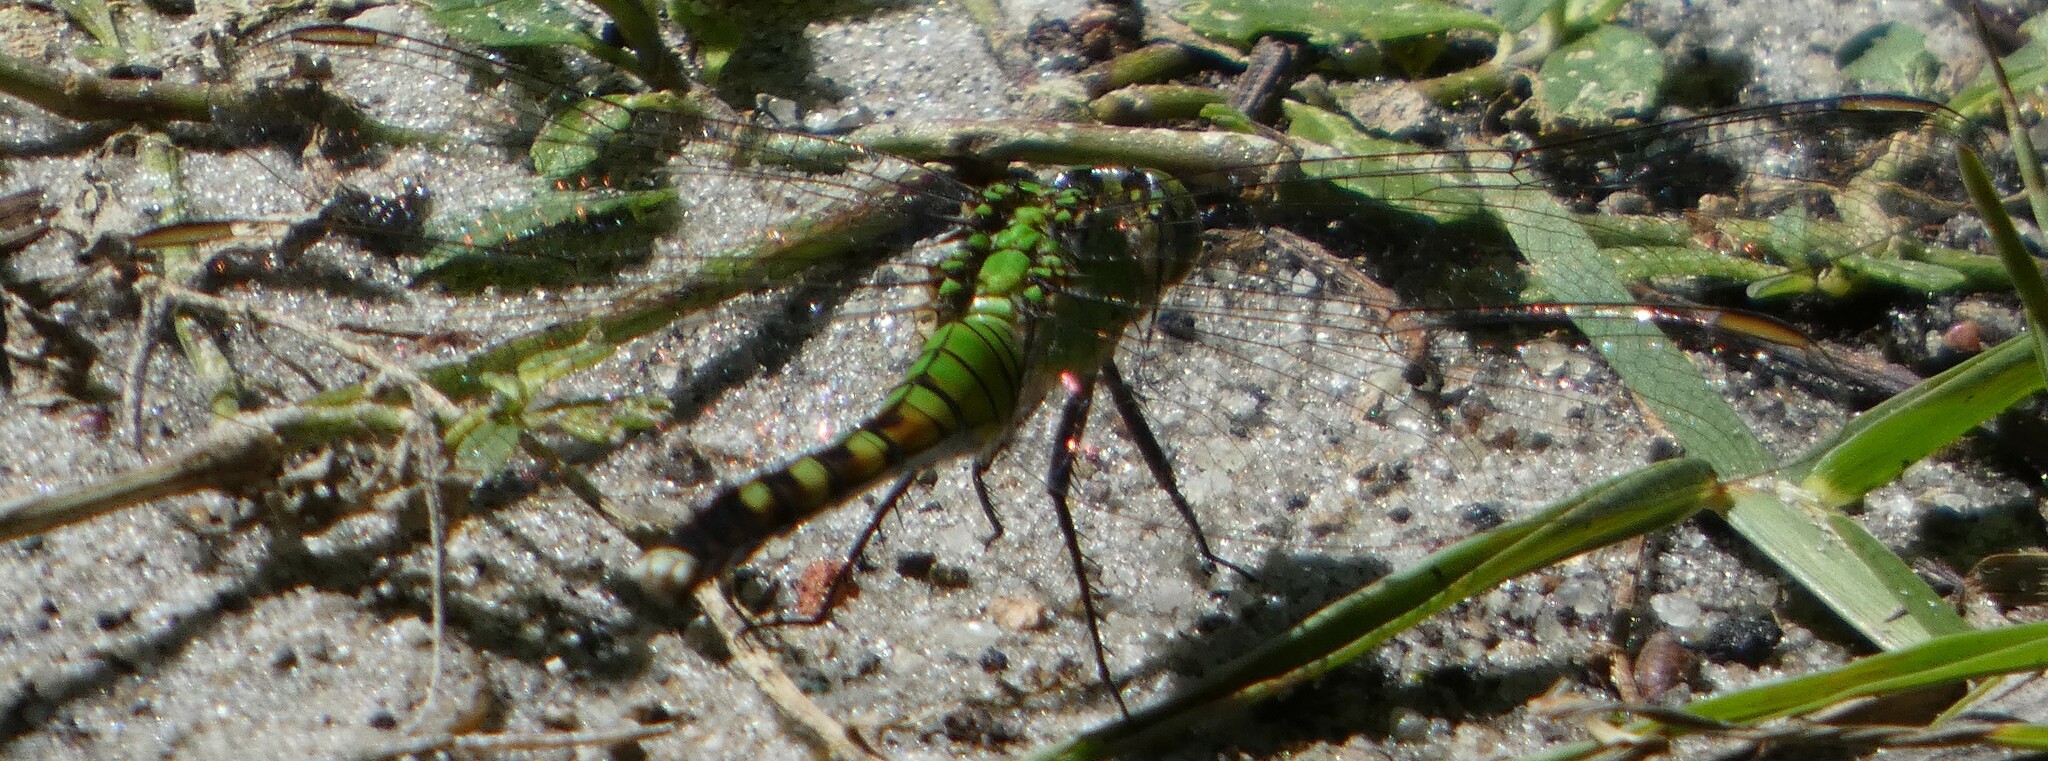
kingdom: Animalia
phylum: Arthropoda
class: Insecta
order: Odonata
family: Libellulidae
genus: Erythemis
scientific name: Erythemis simplicicollis
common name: Eastern pondhawk
